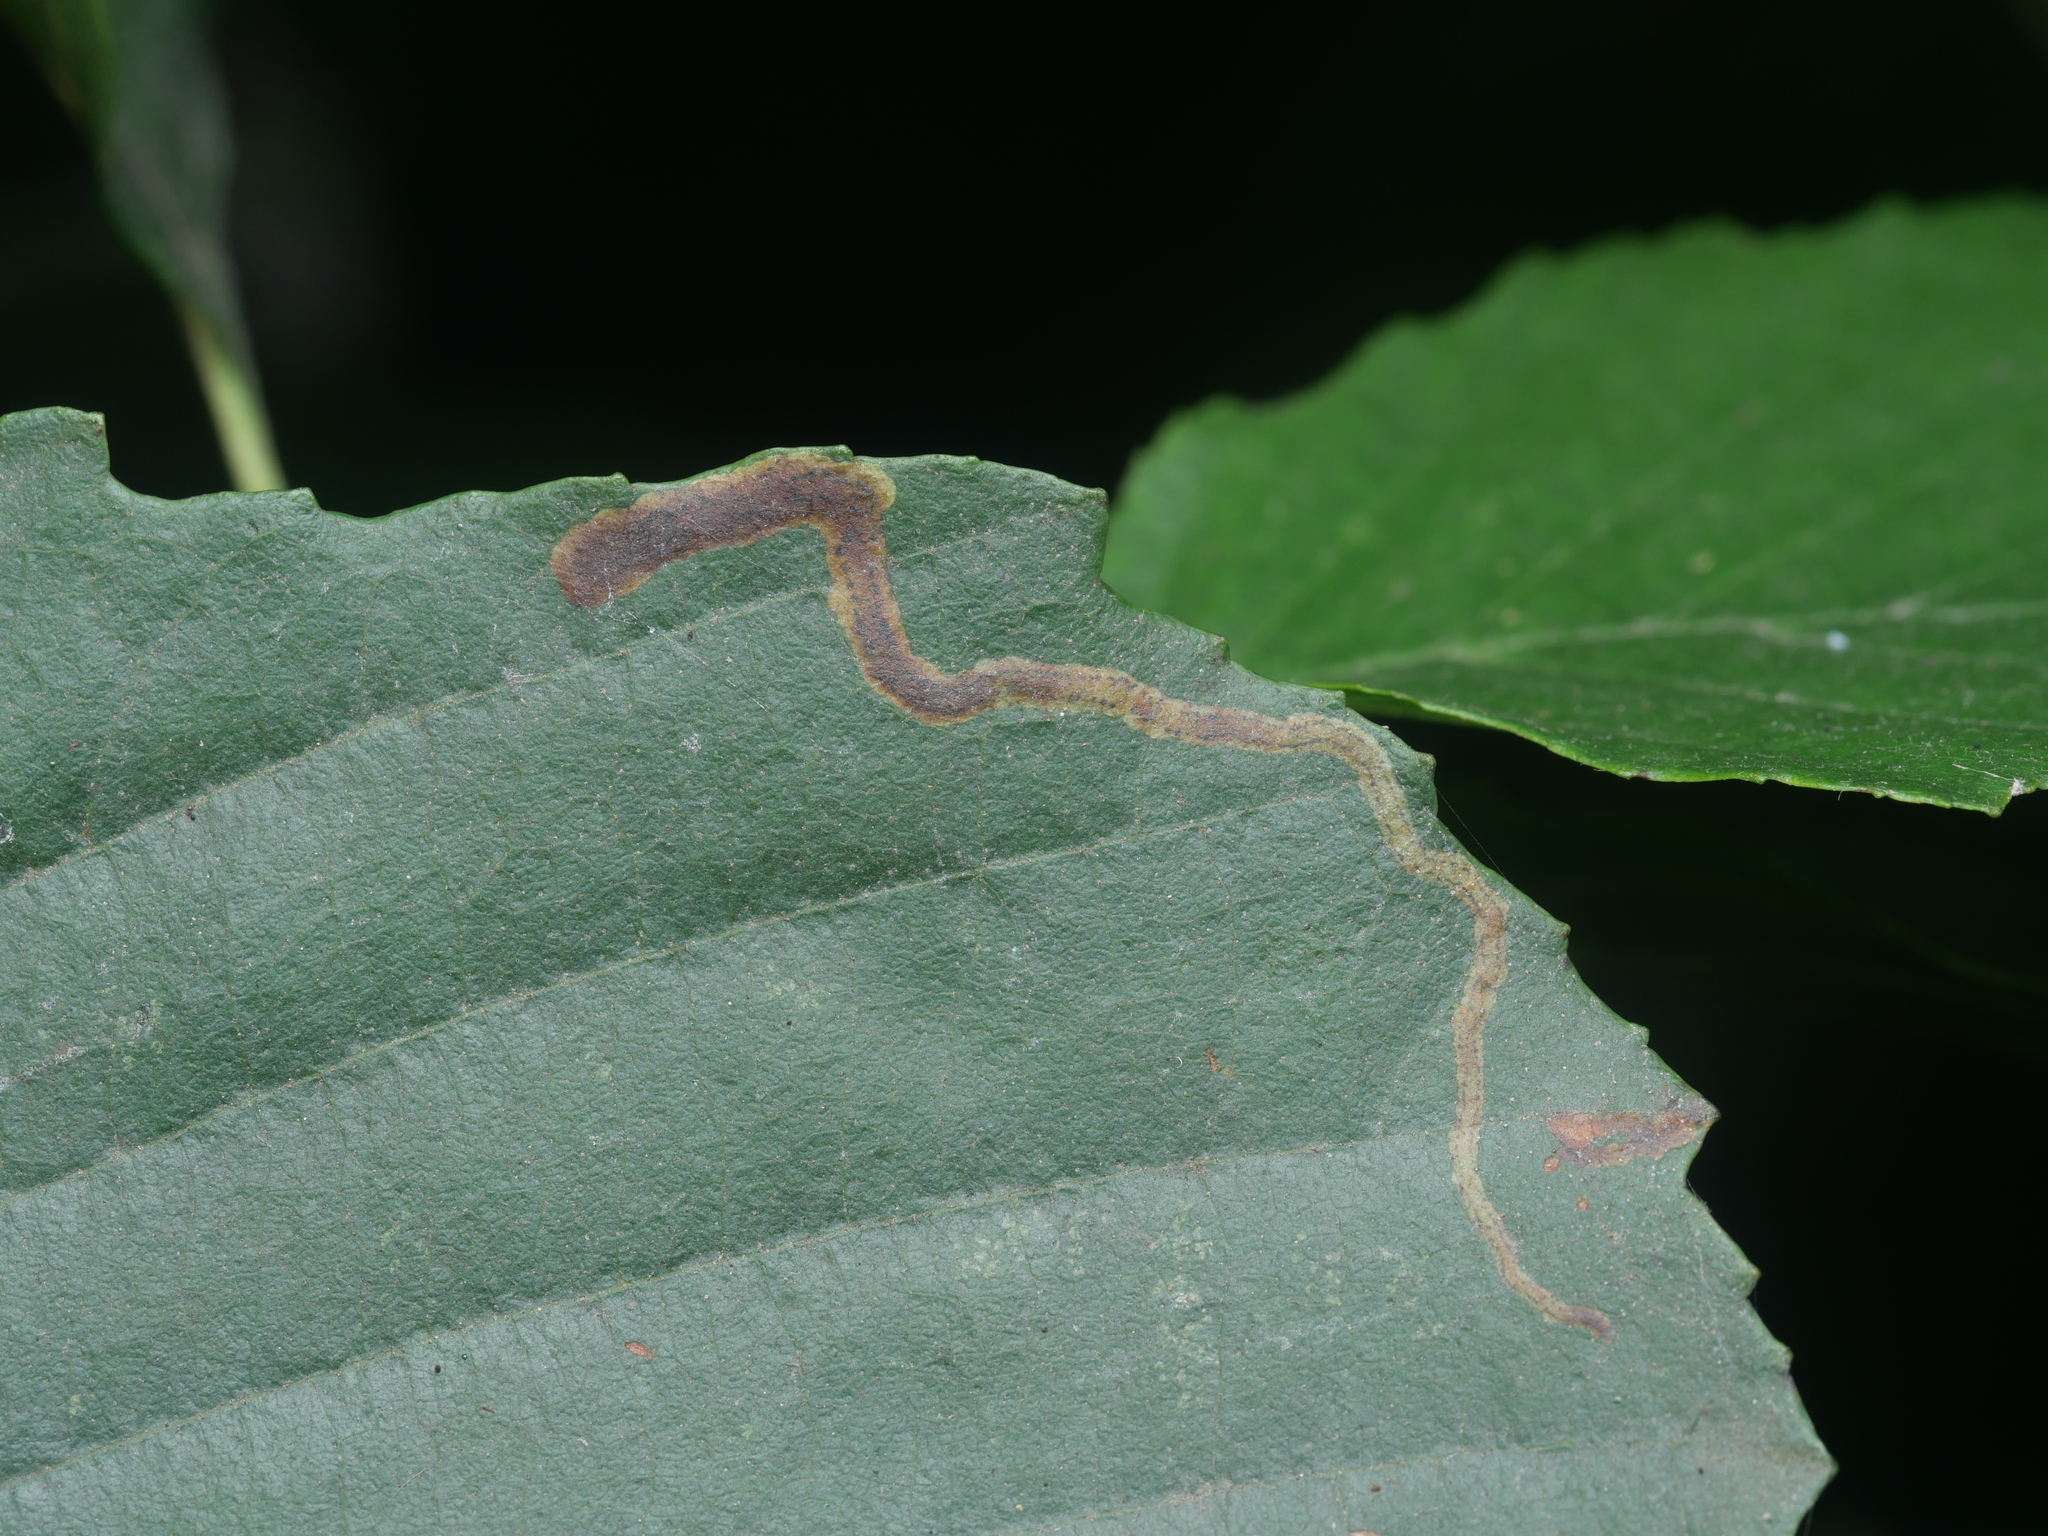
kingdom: Animalia
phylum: Arthropoda
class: Insecta
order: Diptera
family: Agromyzidae
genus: Agromyza
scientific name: Agromyza alnivora
